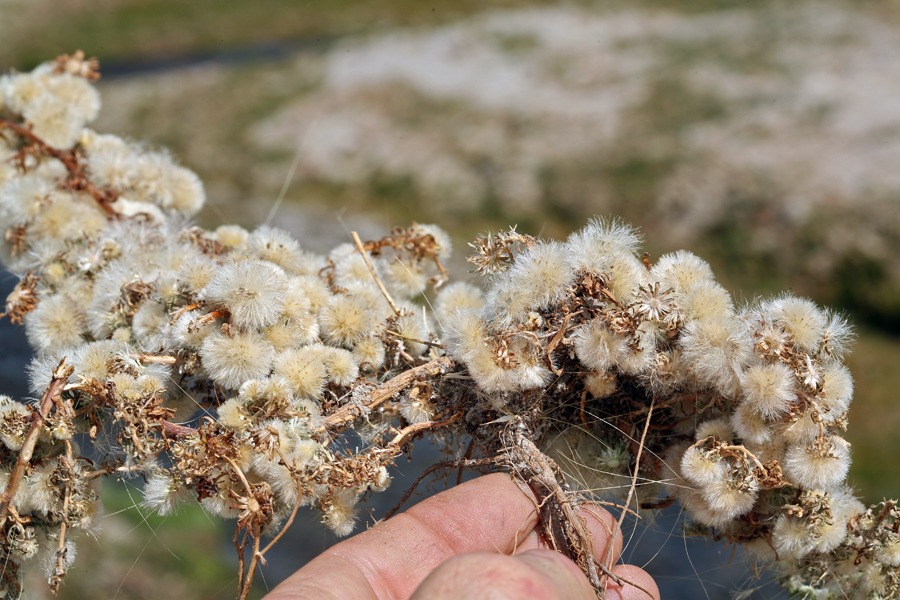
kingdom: Plantae
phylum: Tracheophyta
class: Magnoliopsida
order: Asterales
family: Asteraceae
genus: Symphyotrichum
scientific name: Symphyotrichum frondosum
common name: Leafy aster
